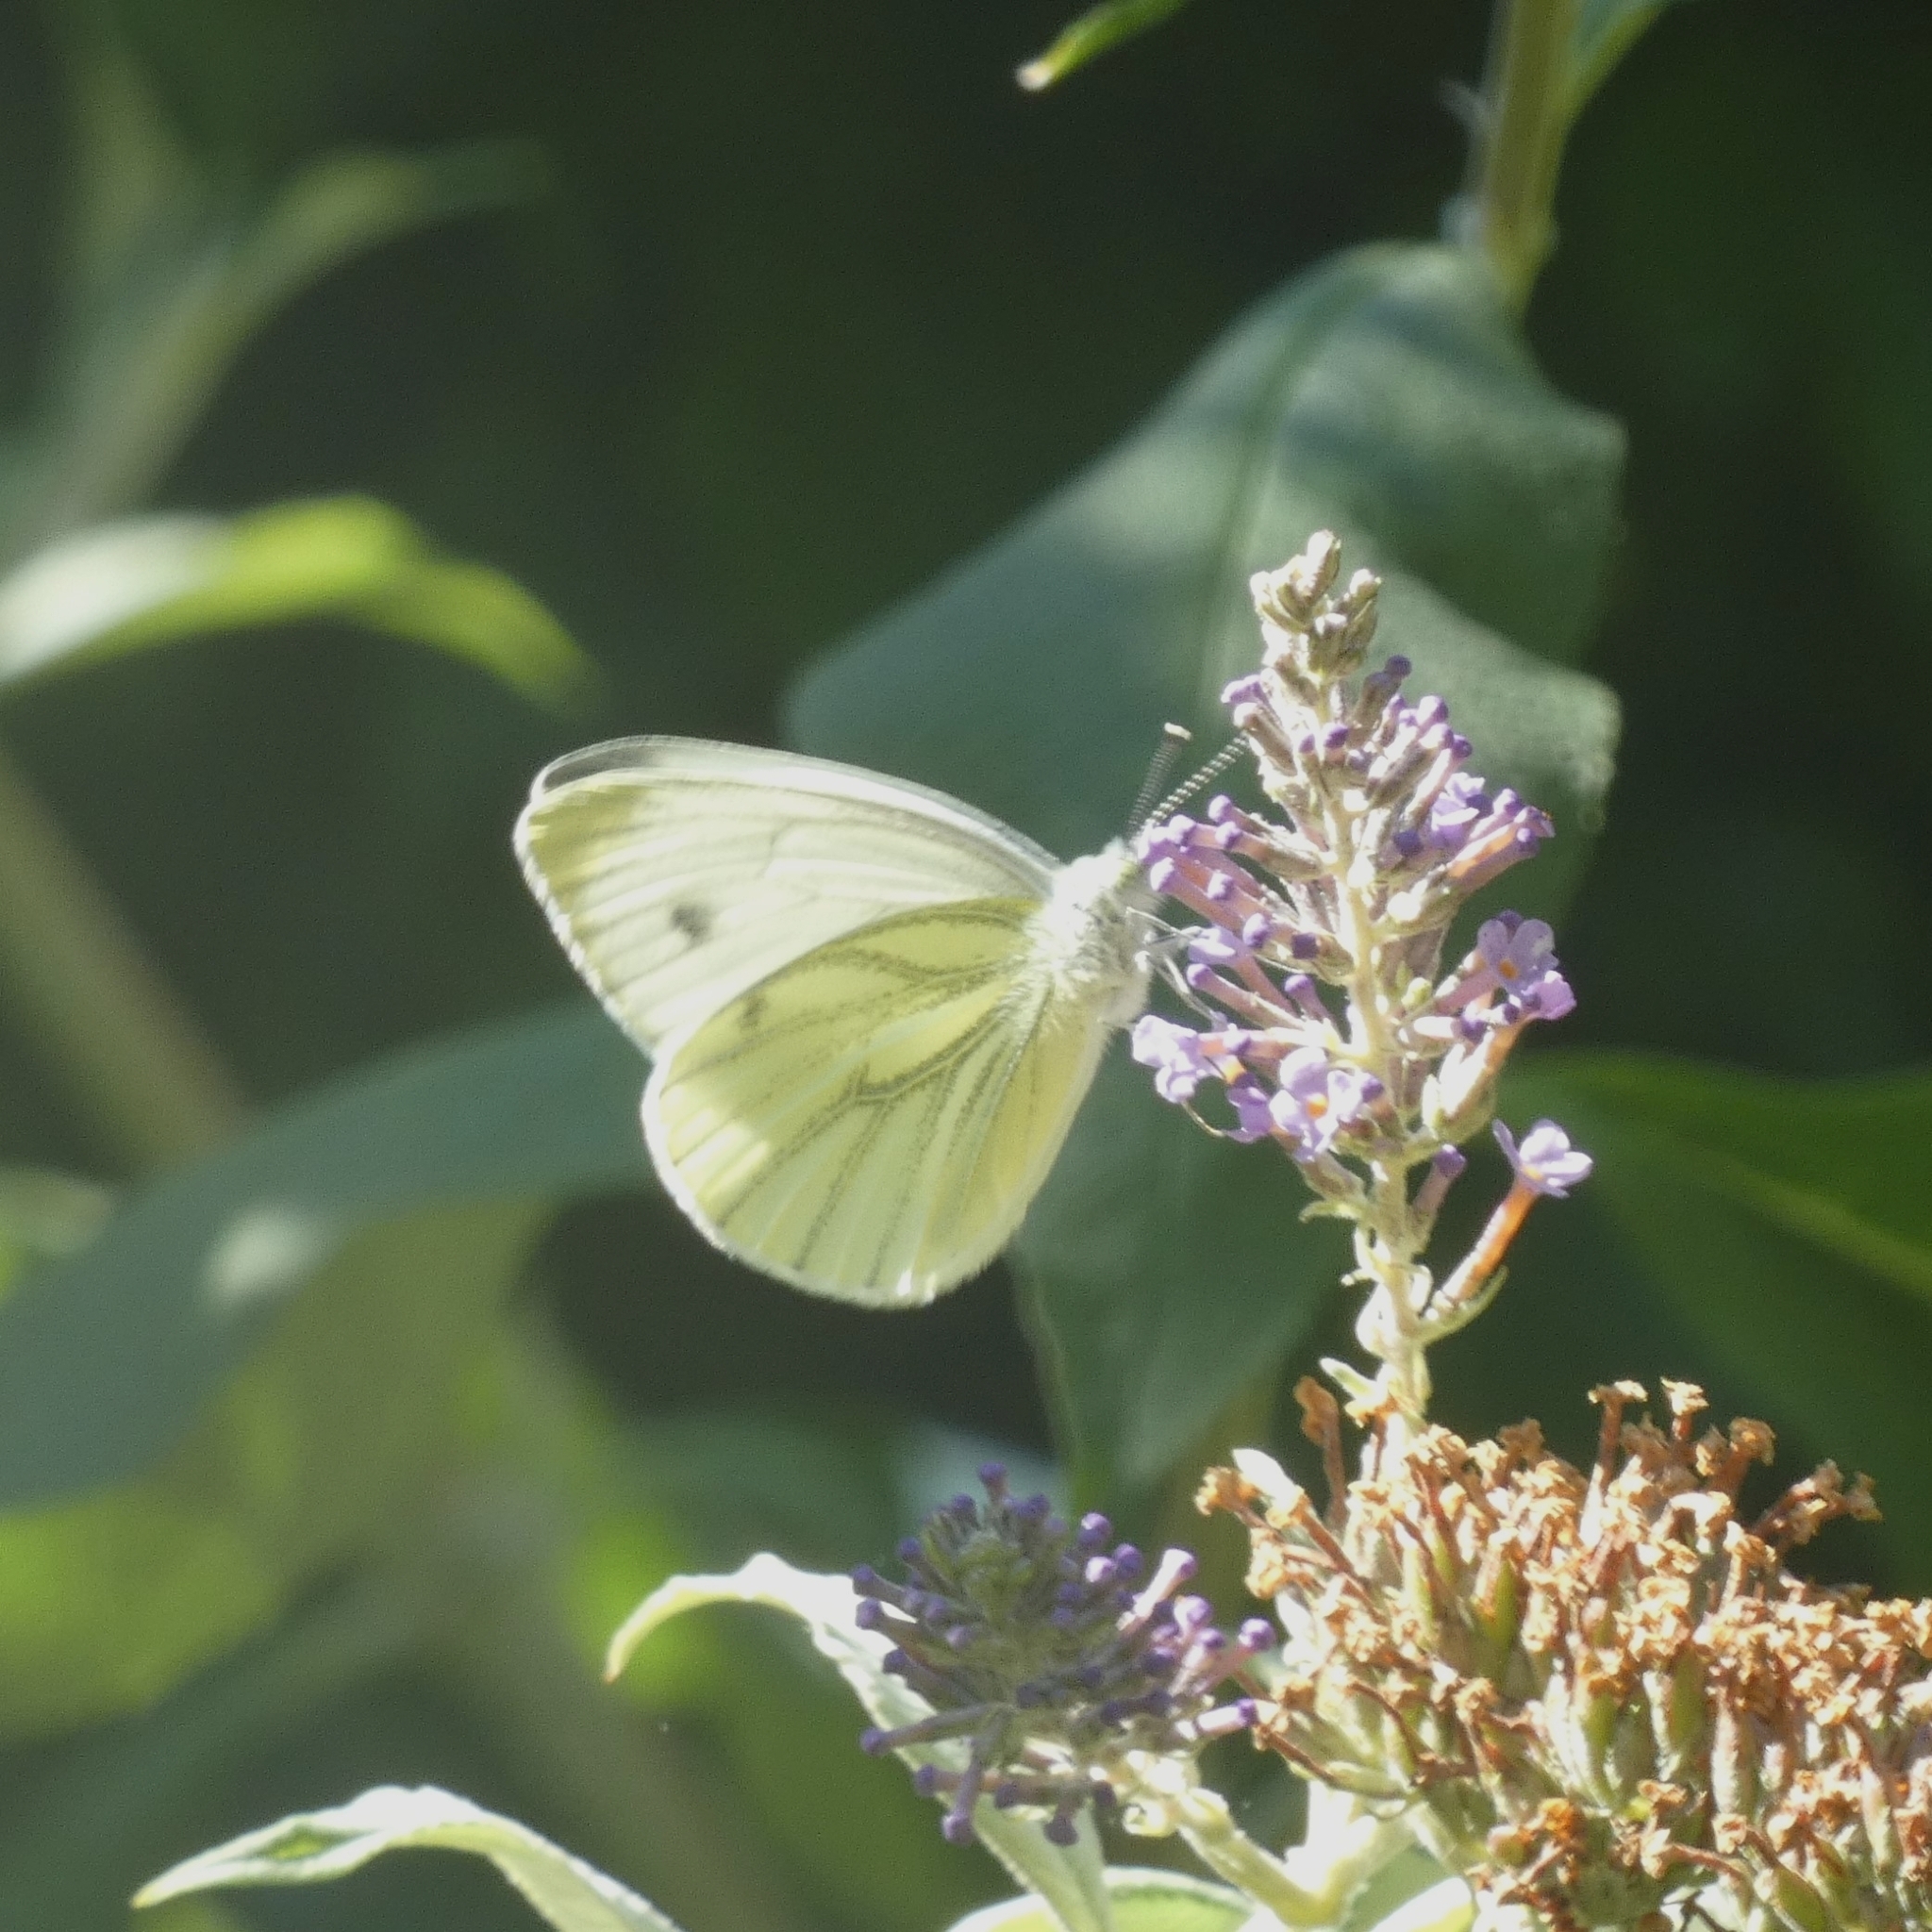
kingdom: Animalia
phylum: Arthropoda
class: Insecta
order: Lepidoptera
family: Pieridae
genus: Pieris
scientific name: Pieris napi
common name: Green-veined white
